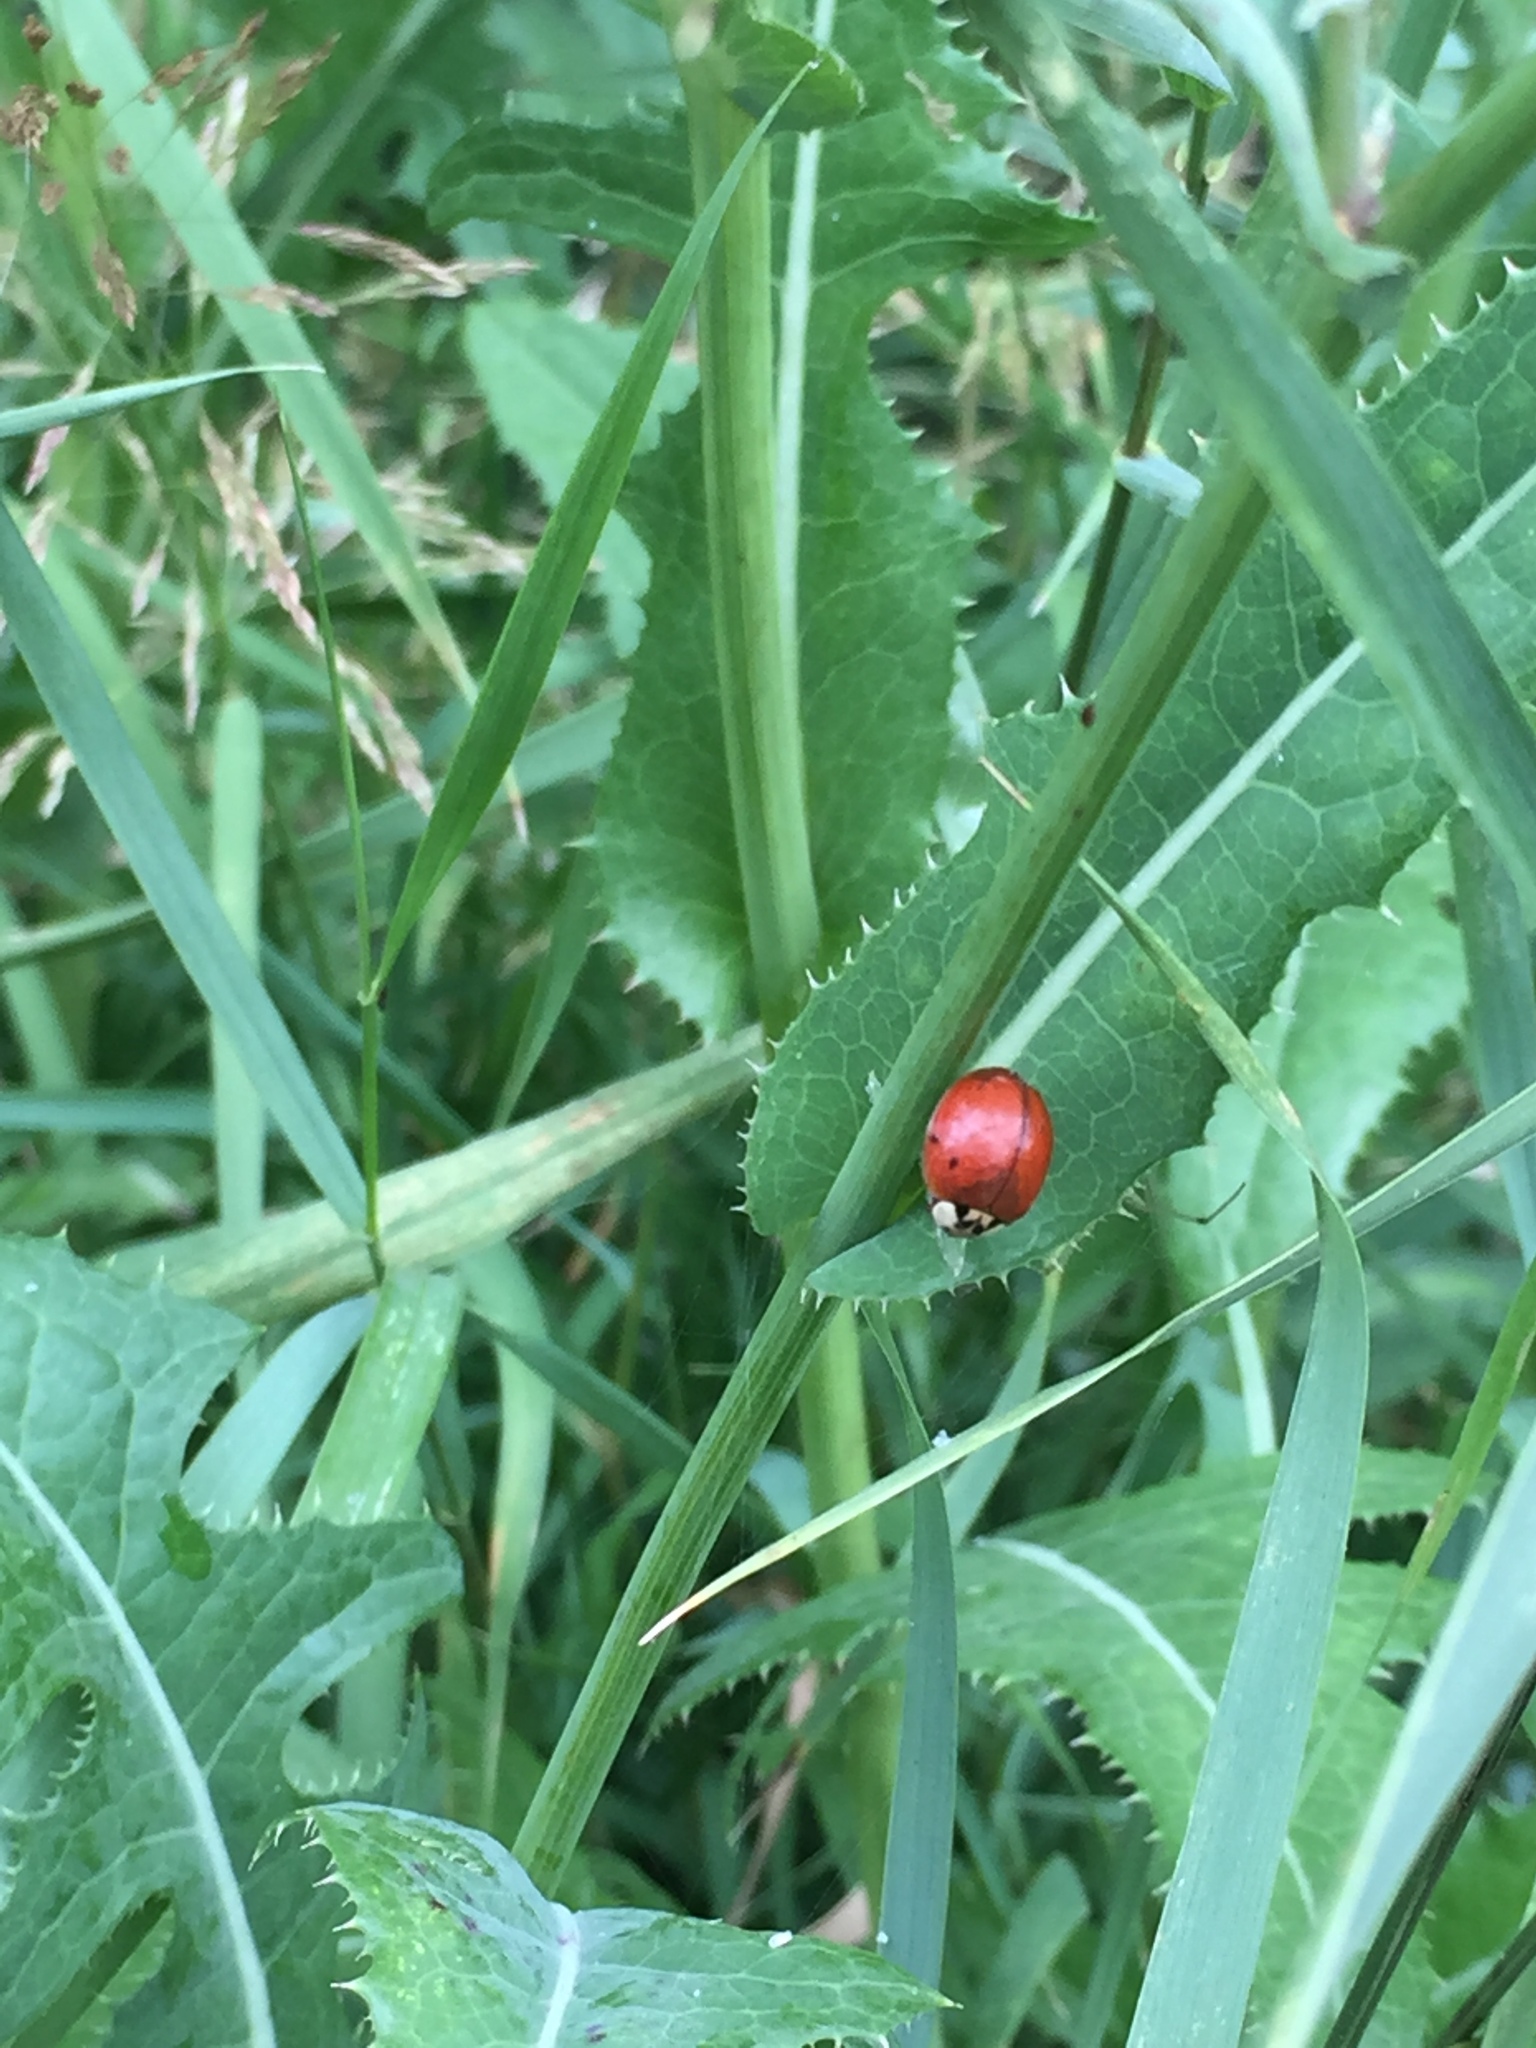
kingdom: Animalia
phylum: Arthropoda
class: Insecta
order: Coleoptera
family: Coccinellidae
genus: Harmonia
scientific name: Harmonia axyridis
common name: Harlequin ladybird
